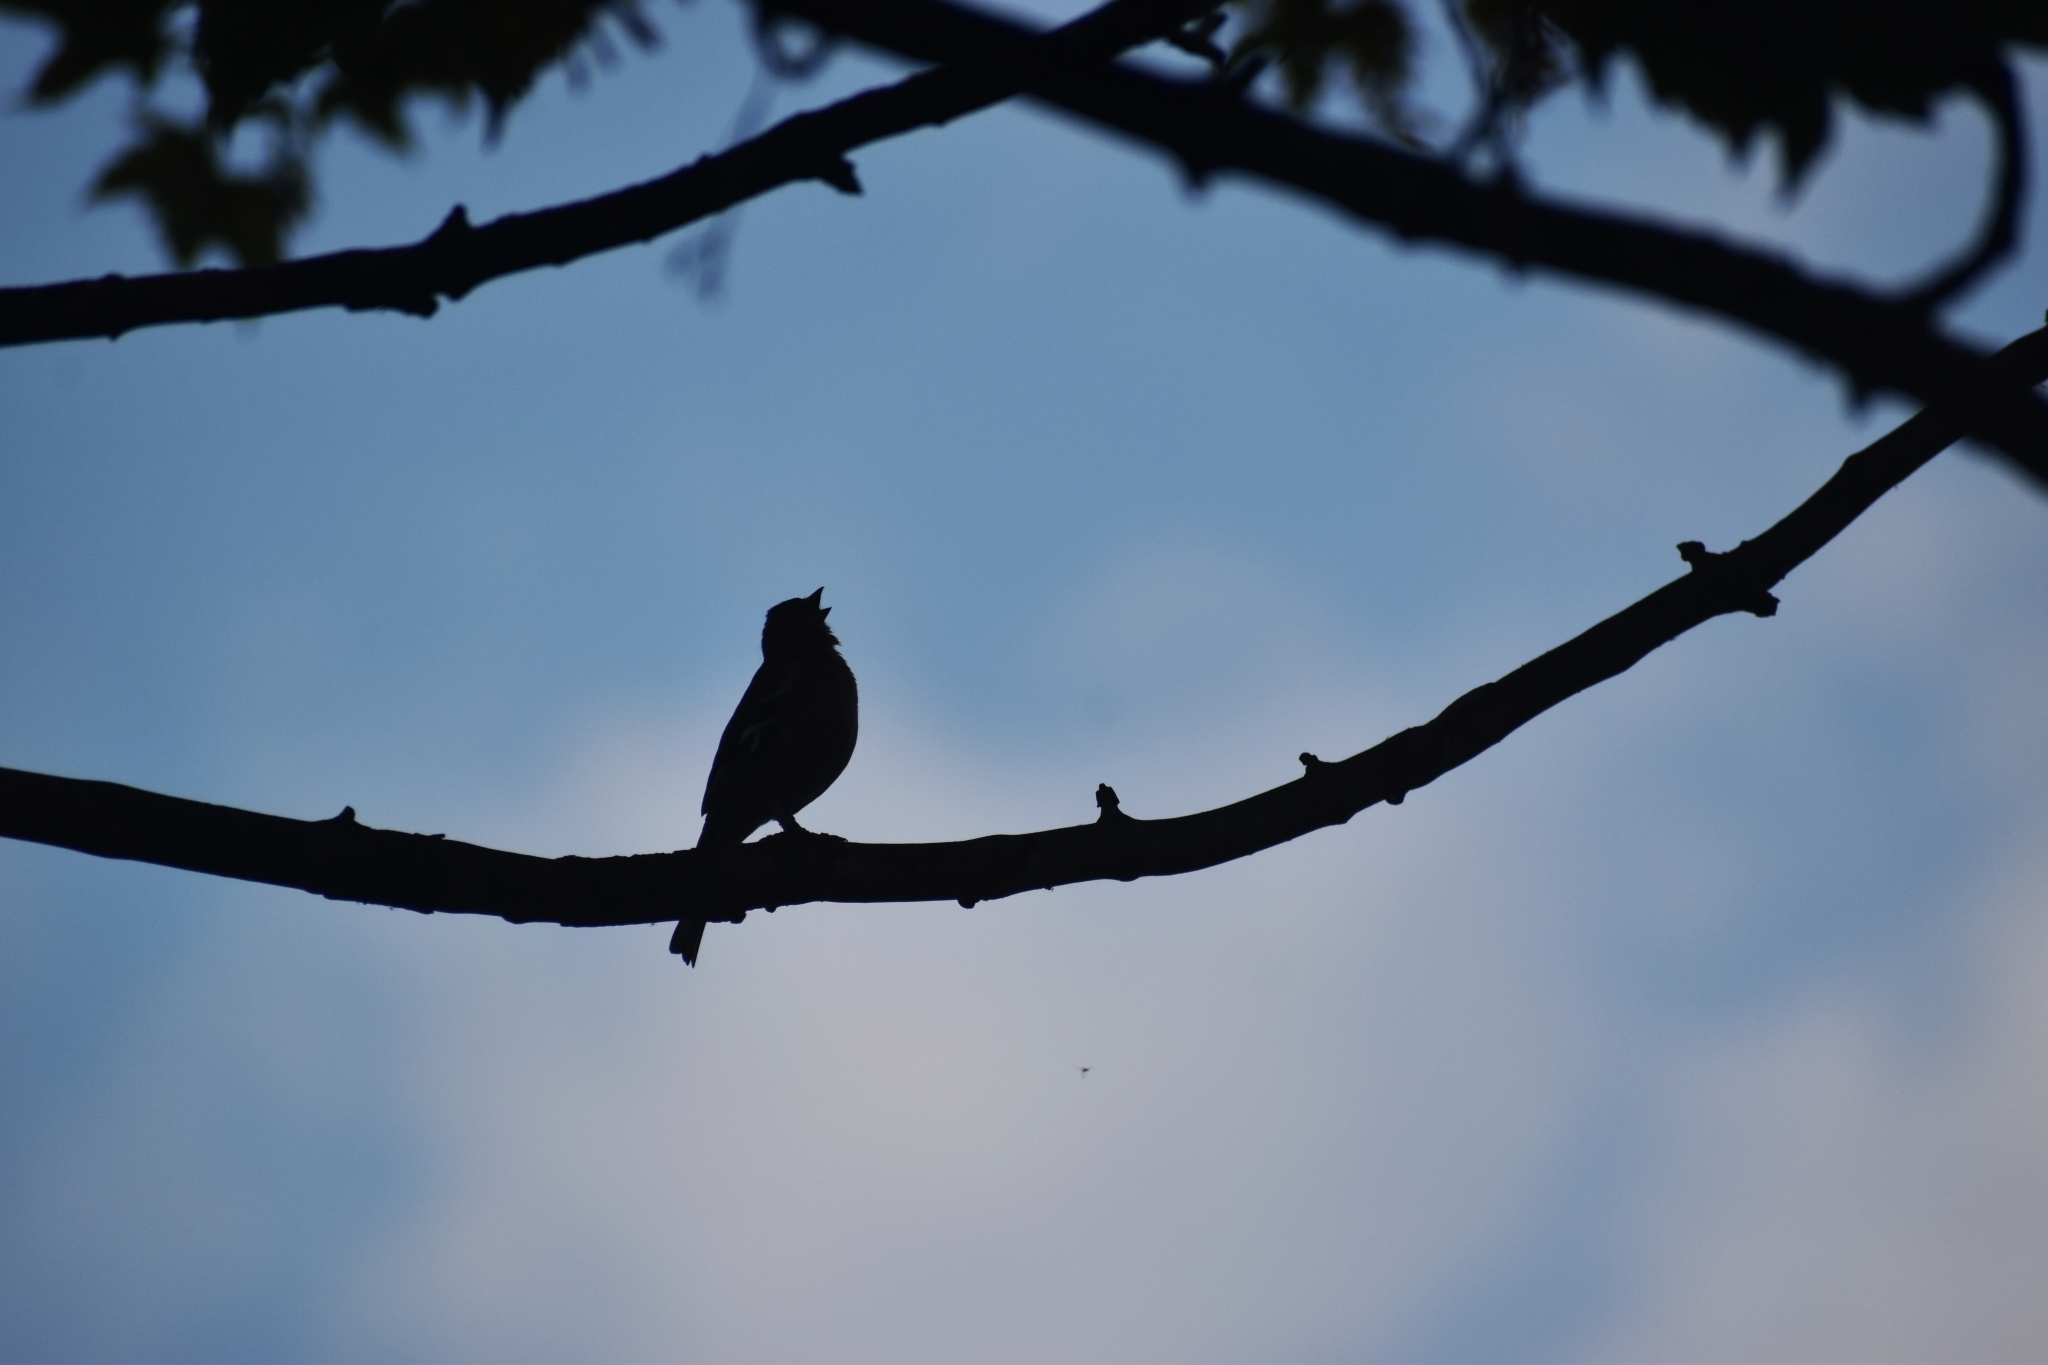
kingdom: Animalia
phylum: Chordata
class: Aves
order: Passeriformes
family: Fringillidae
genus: Fringilla
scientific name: Fringilla coelebs
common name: Common chaffinch
